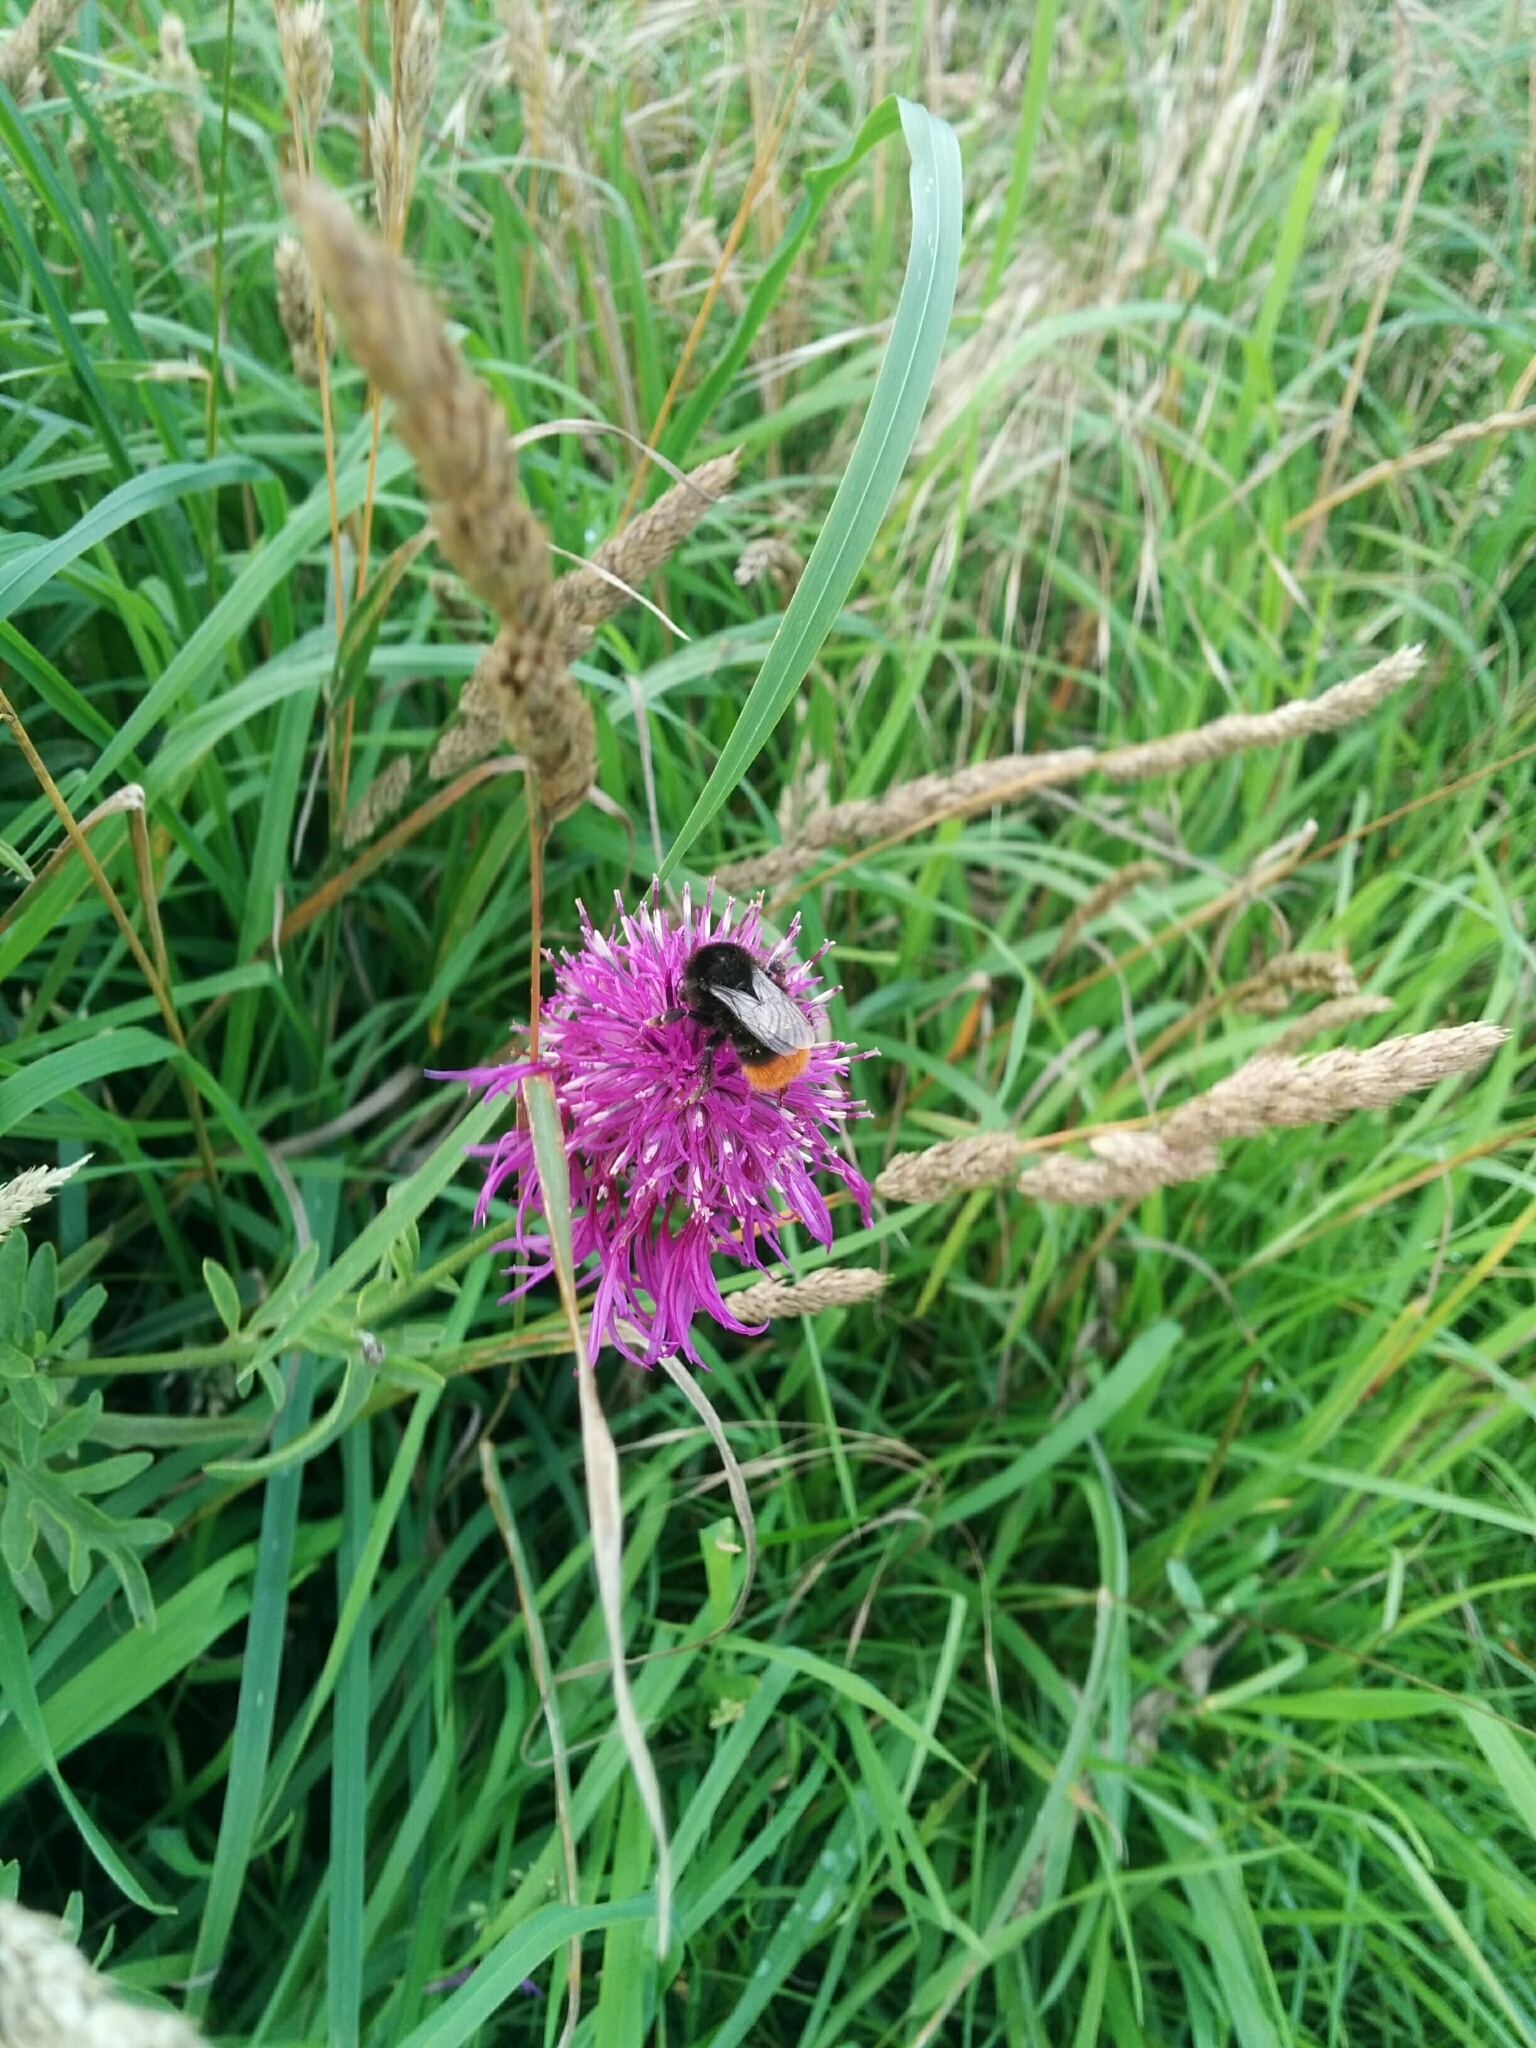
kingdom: Animalia
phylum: Arthropoda
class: Insecta
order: Hymenoptera
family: Apidae
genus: Bombus
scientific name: Bombus lapidarius
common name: Large red-tailed humble-bee
